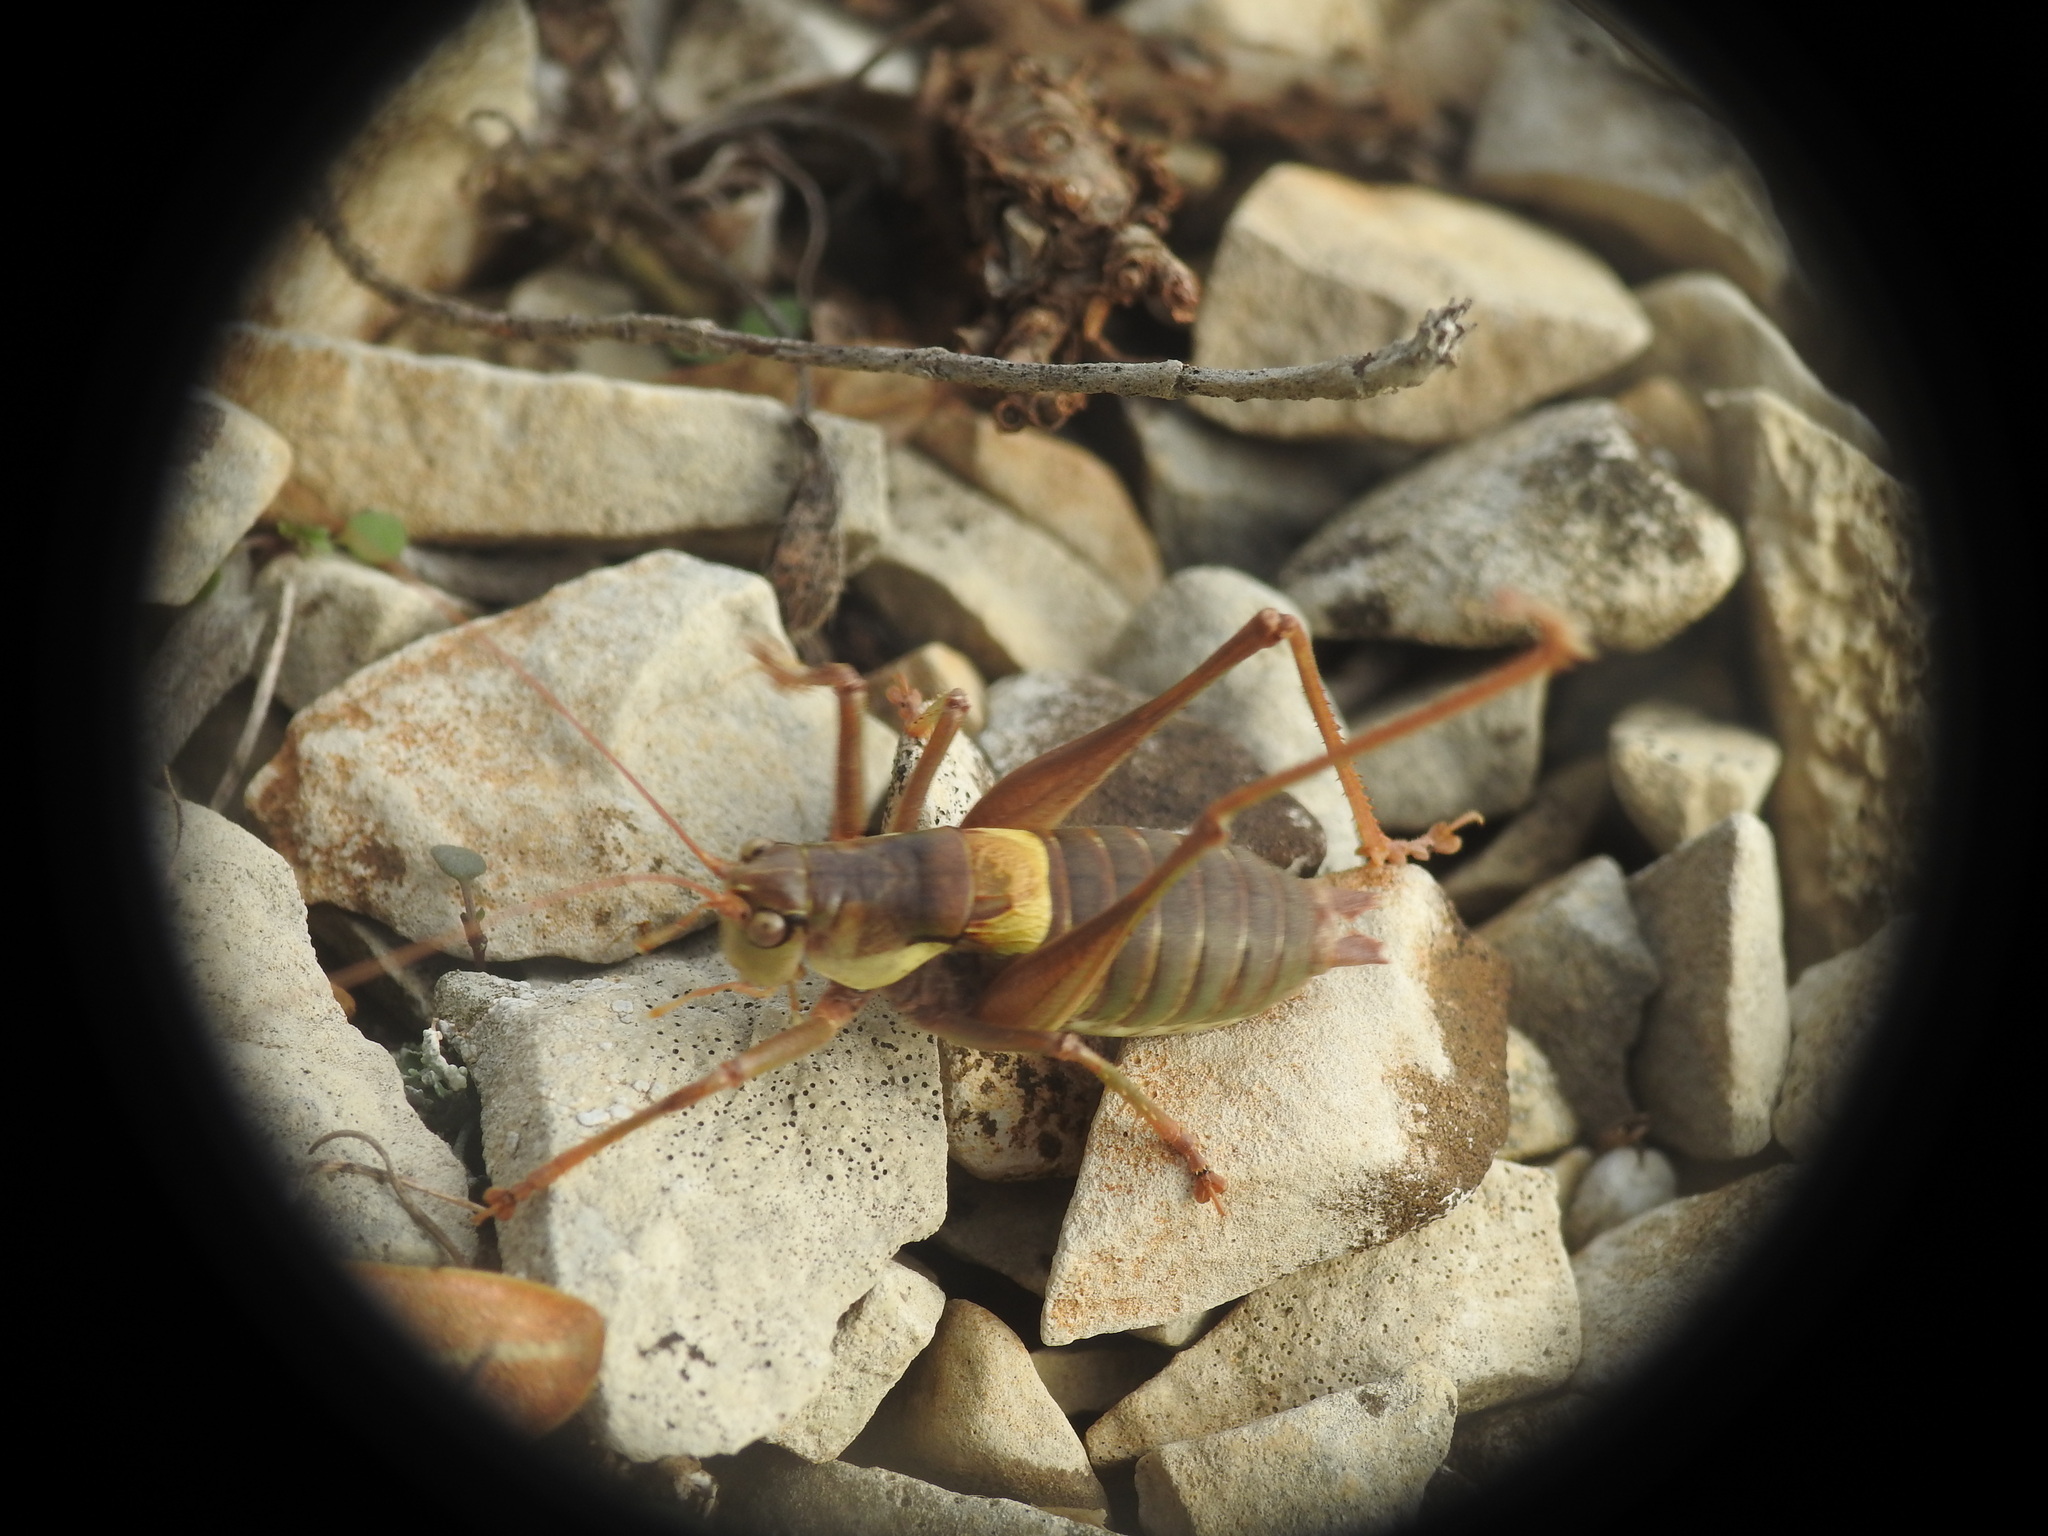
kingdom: Animalia
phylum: Arthropoda
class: Insecta
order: Orthoptera
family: Tettigoniidae
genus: Antaxius
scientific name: Antaxius sorrezensis
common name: French mountain bush-cricket
